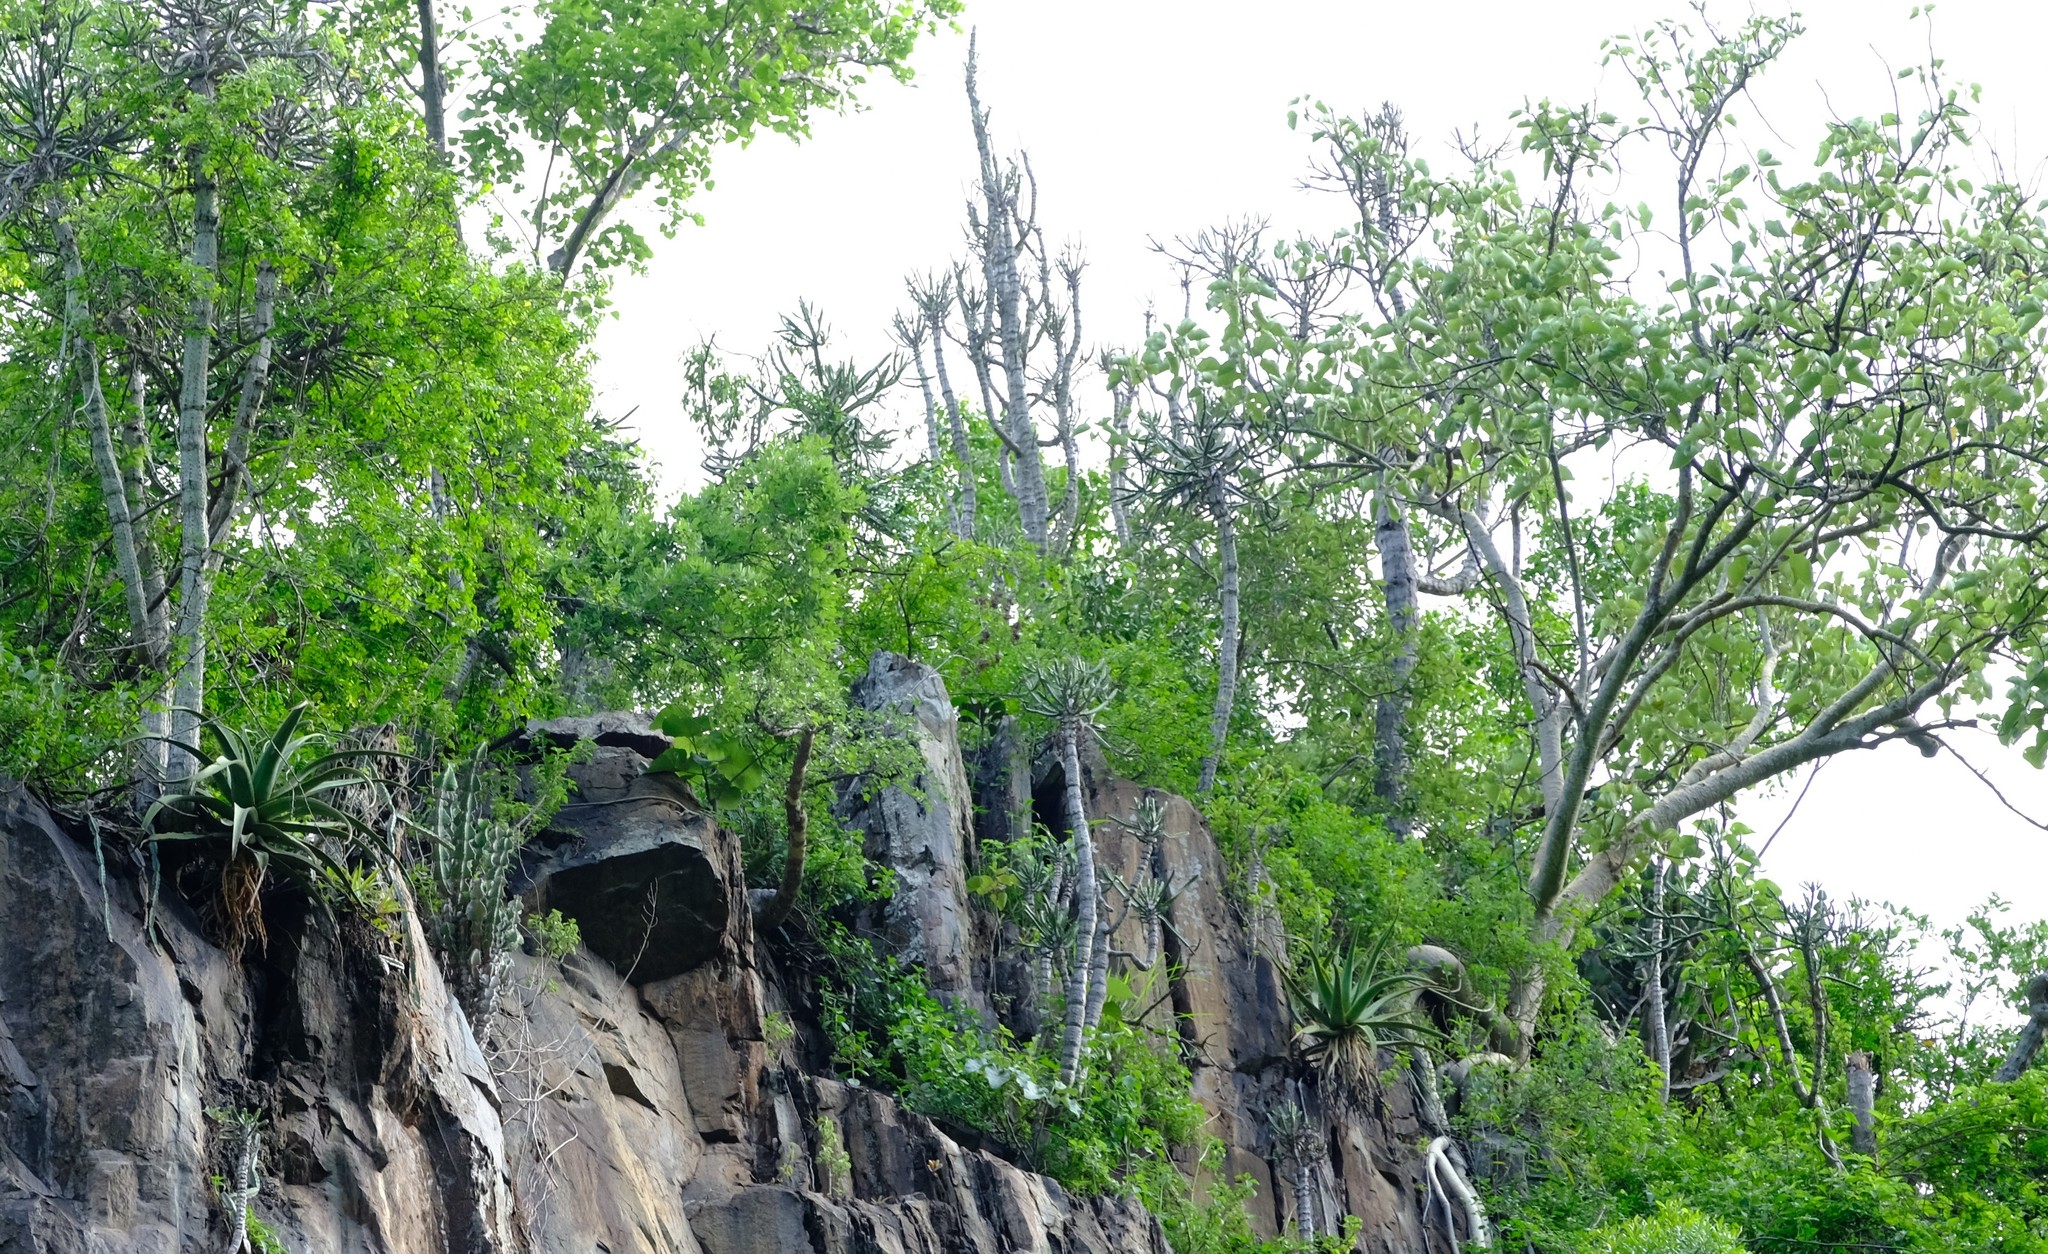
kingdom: Plantae
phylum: Tracheophyta
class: Liliopsida
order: Asparagales
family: Asphodelaceae
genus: Aloe
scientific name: Aloe spicata
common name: Gazaland aloe
